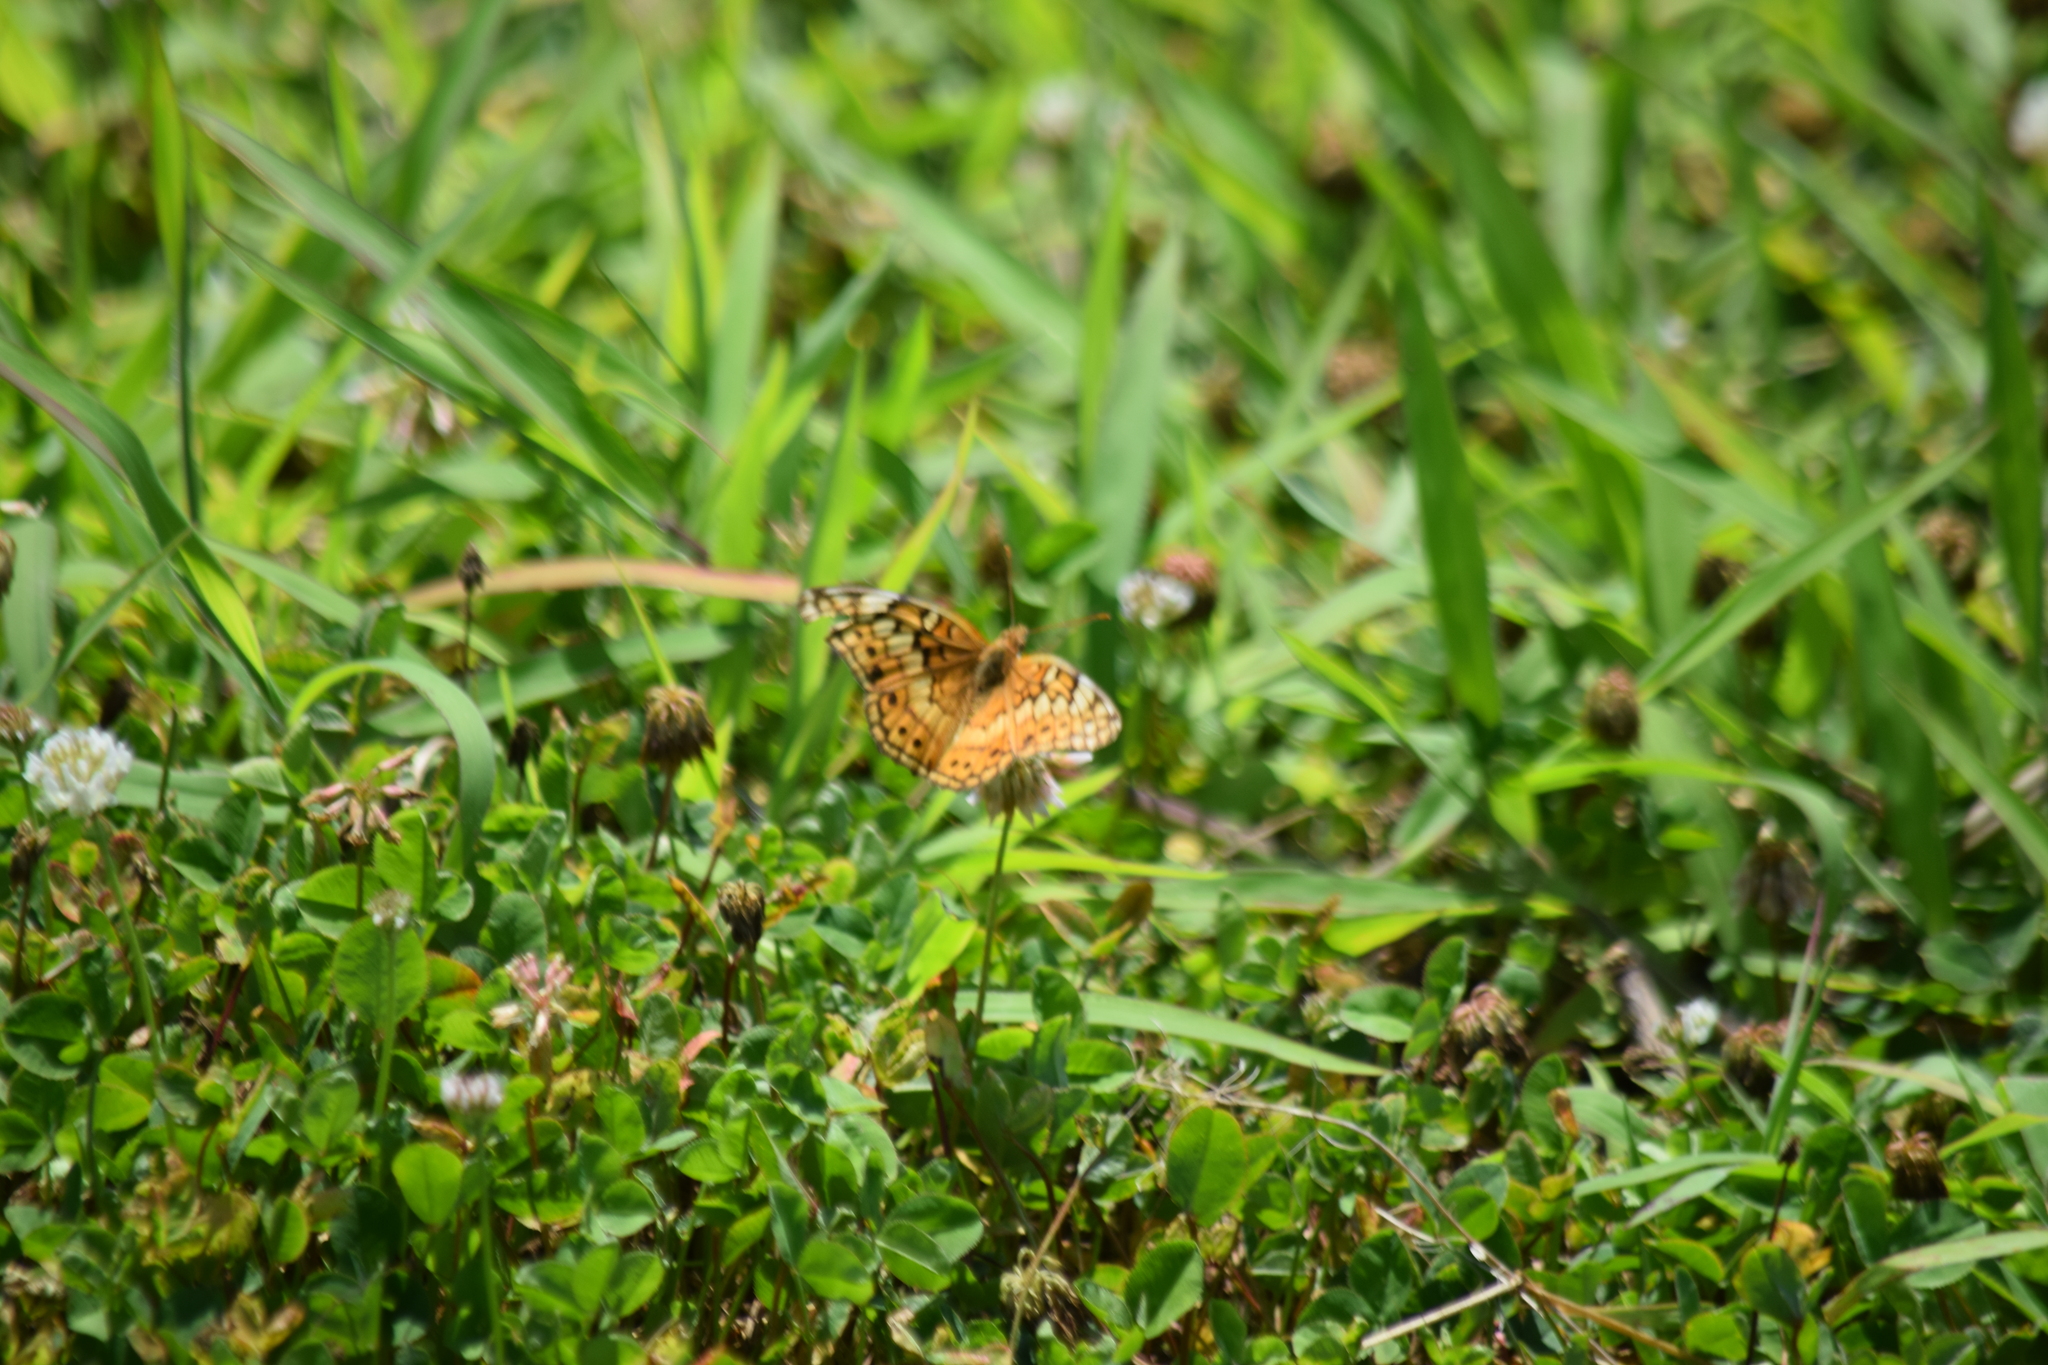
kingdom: Animalia
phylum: Arthropoda
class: Insecta
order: Lepidoptera
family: Nymphalidae
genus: Euptoieta
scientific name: Euptoieta claudia
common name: Variegated fritillary
